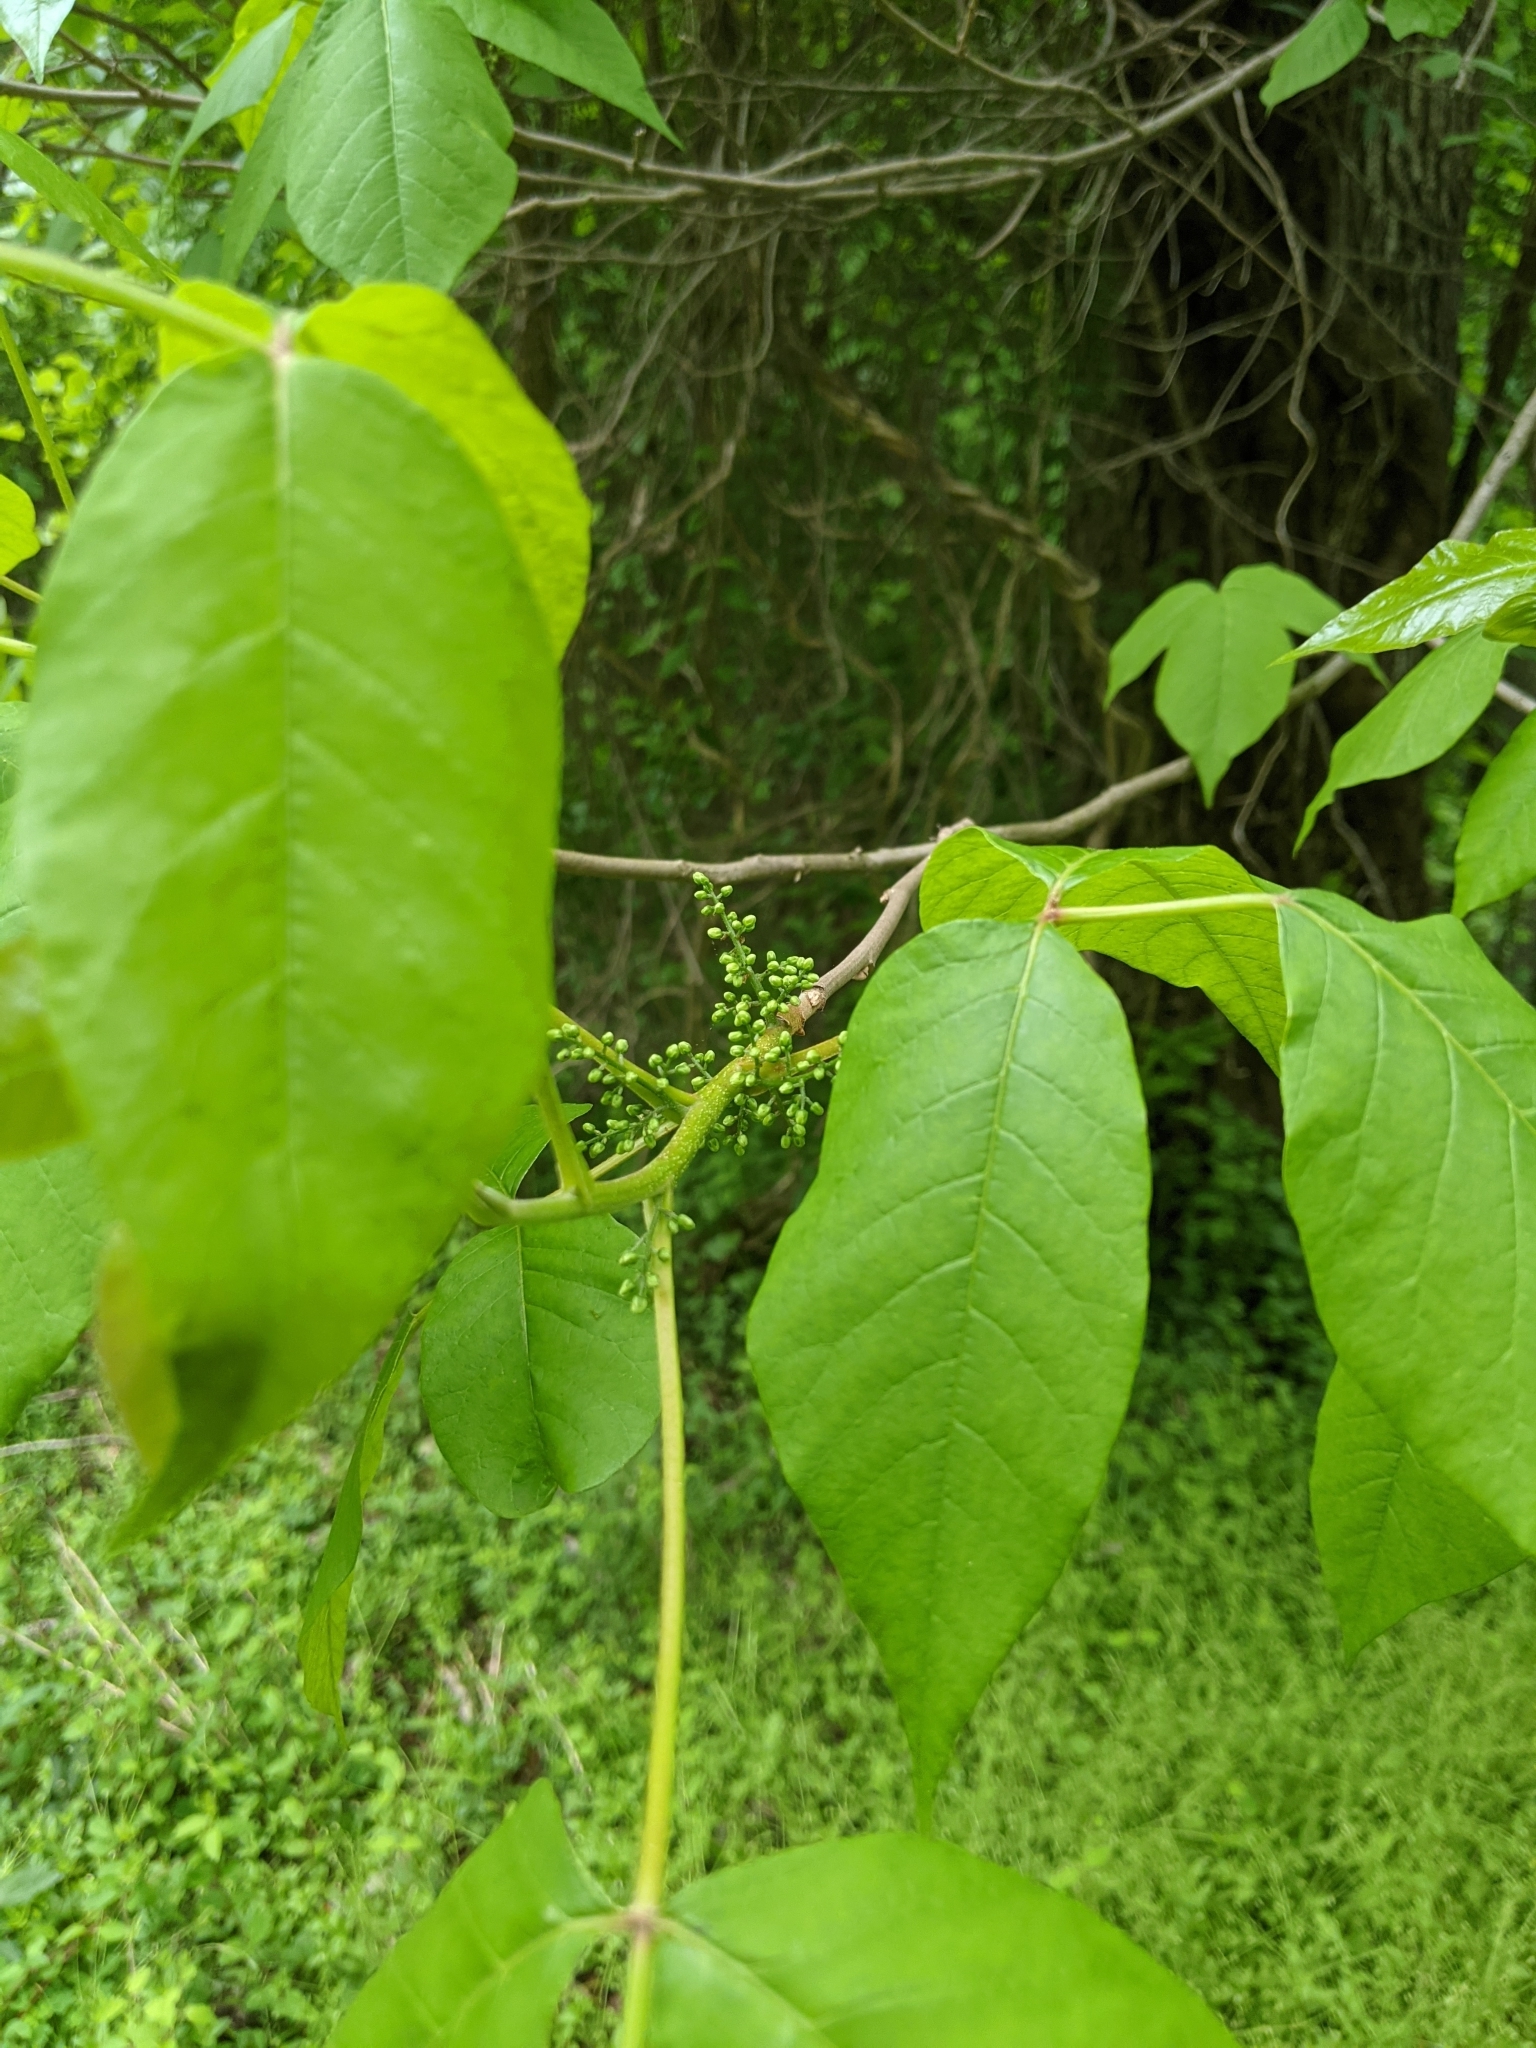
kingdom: Plantae
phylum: Tracheophyta
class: Magnoliopsida
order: Sapindales
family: Anacardiaceae
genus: Toxicodendron
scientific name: Toxicodendron radicans
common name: Poison ivy
